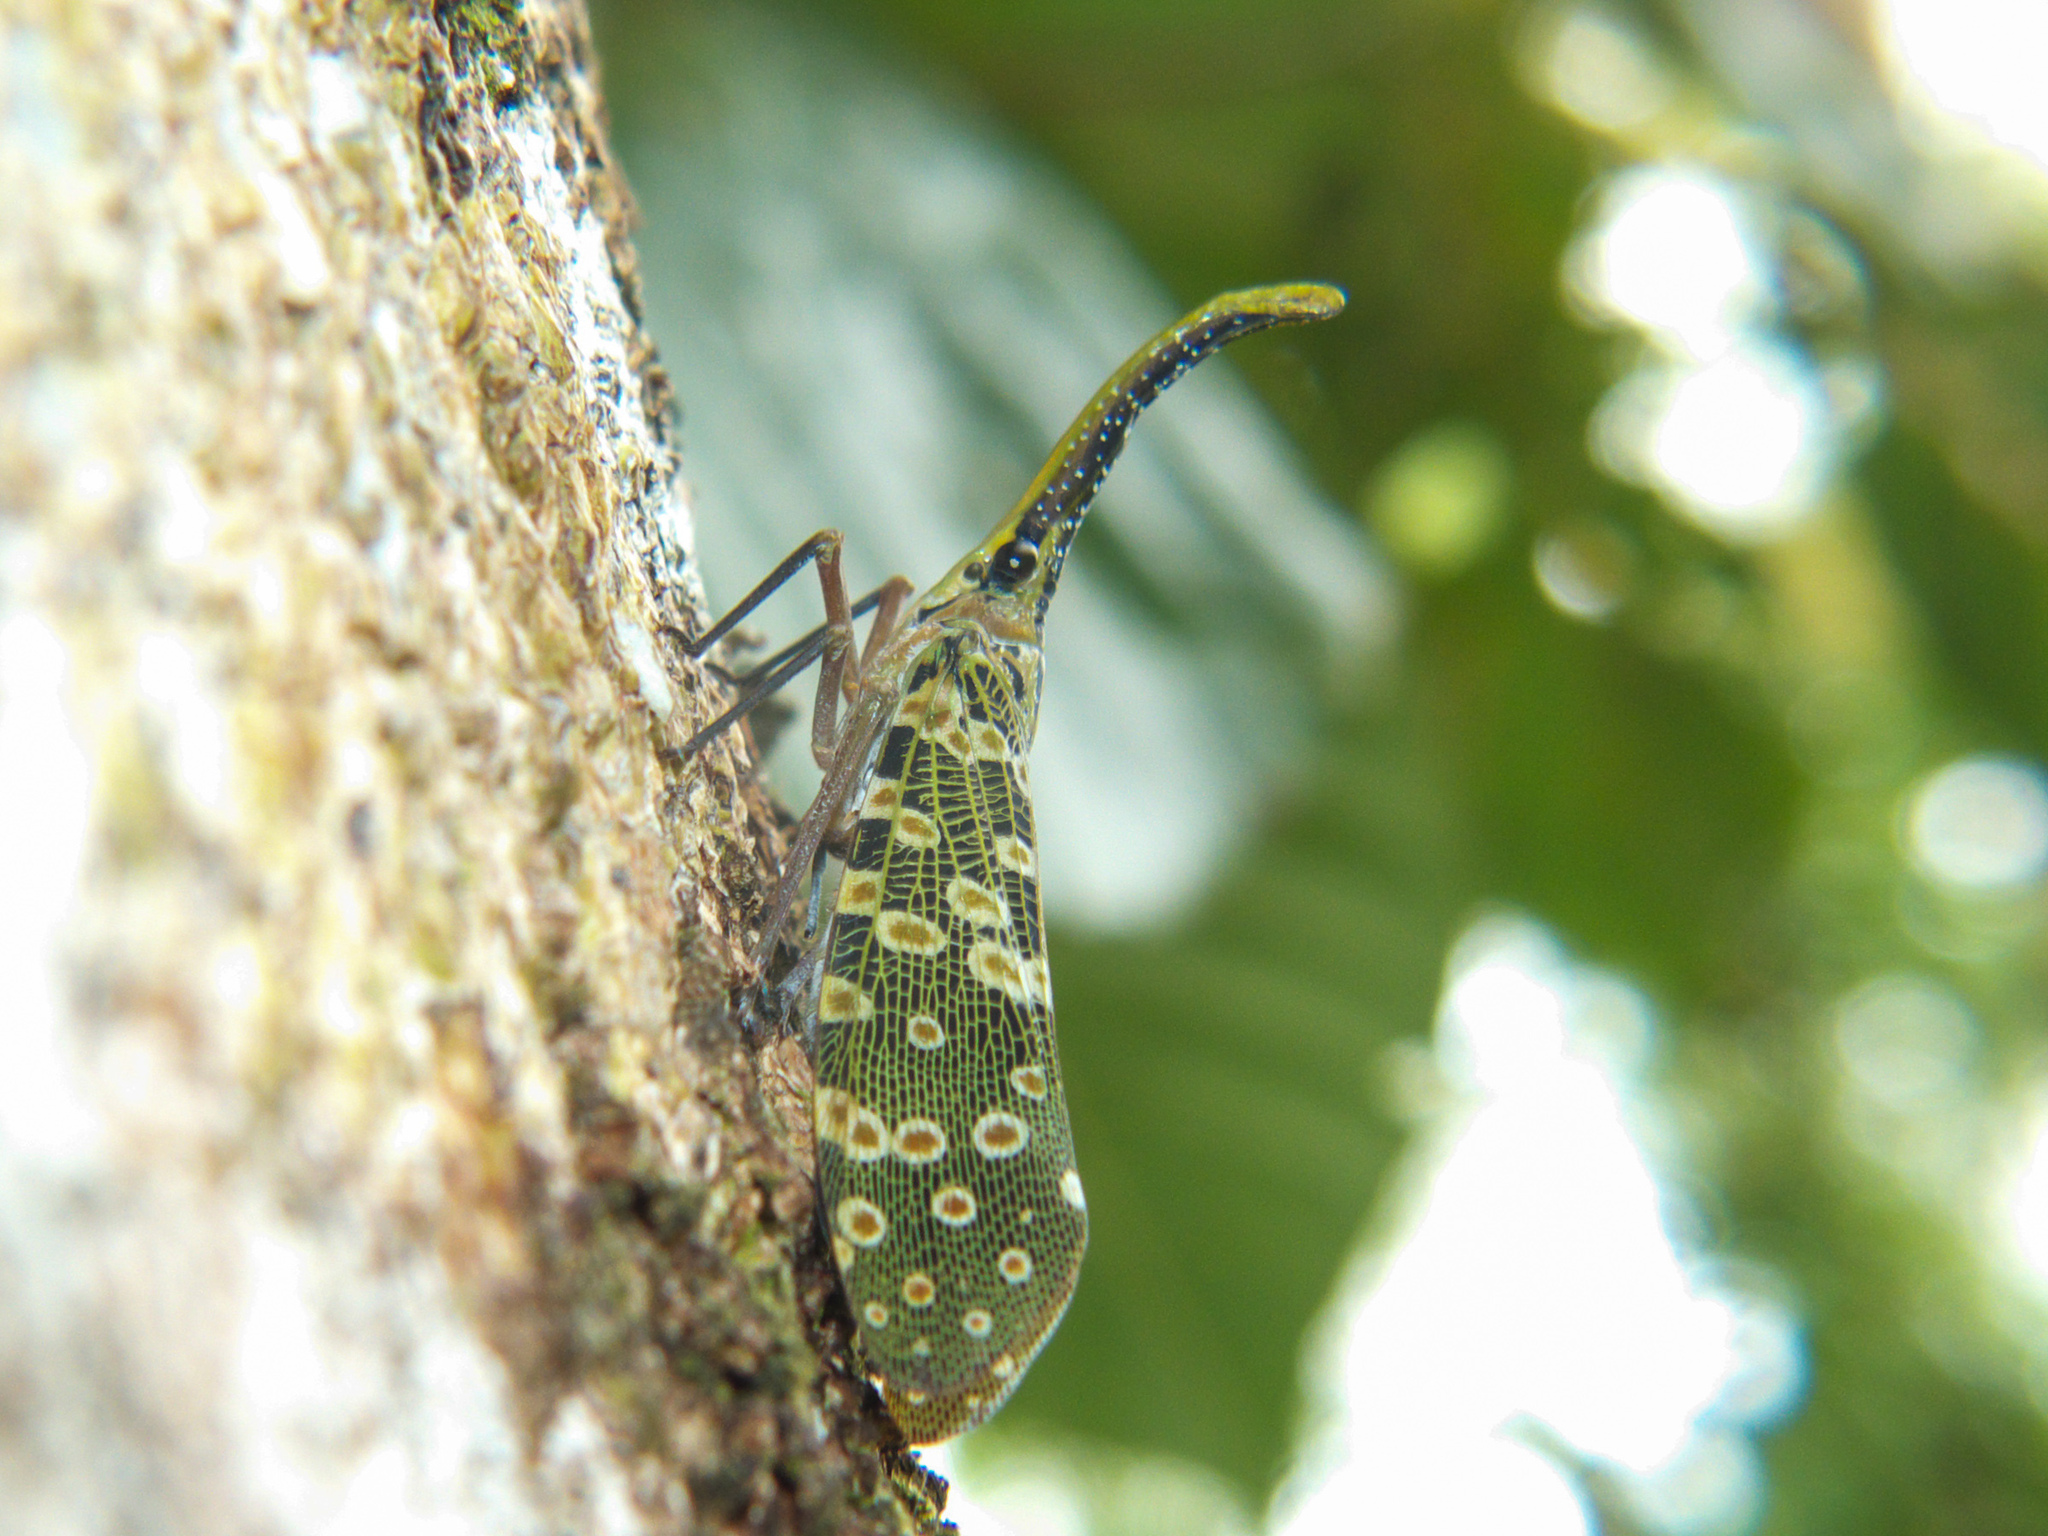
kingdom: Animalia
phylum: Arthropoda
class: Insecta
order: Hemiptera
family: Fulgoridae
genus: Pyrops
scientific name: Pyrops condorinus
